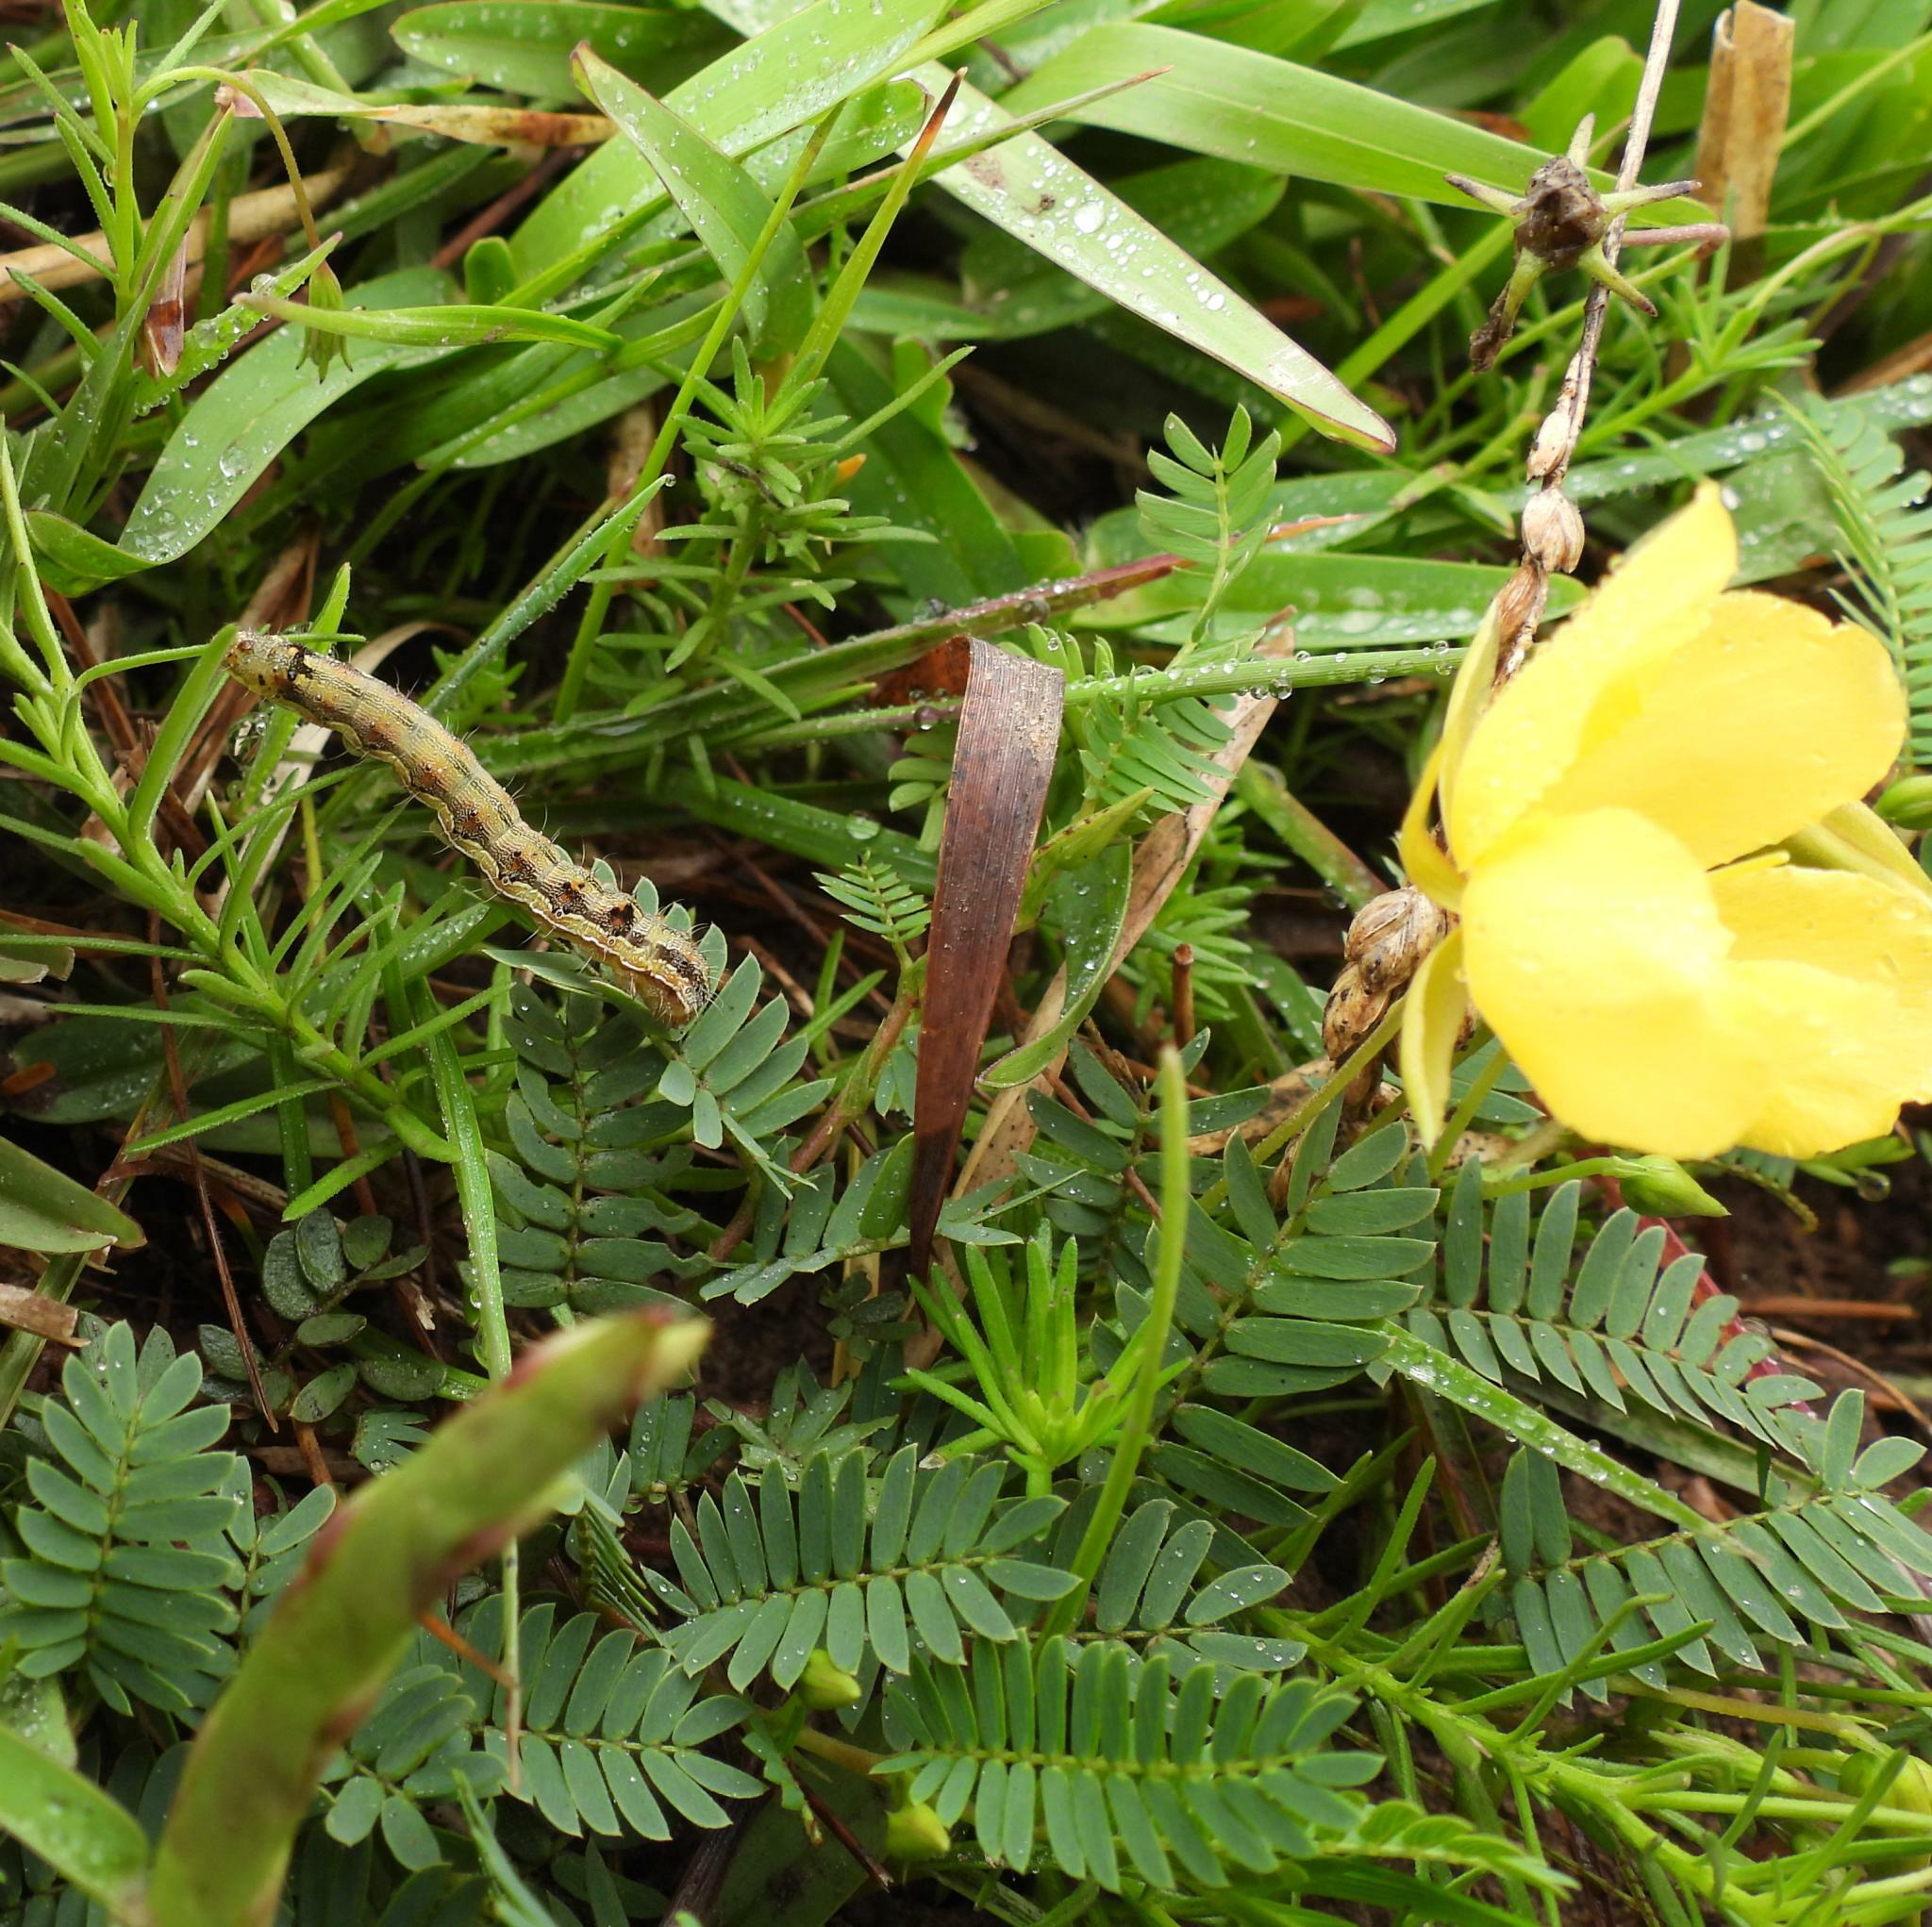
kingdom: Animalia
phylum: Arthropoda
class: Insecta
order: Lepidoptera
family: Noctuidae
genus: Helicoverpa
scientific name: Helicoverpa armigera
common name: Cotton bollworm
